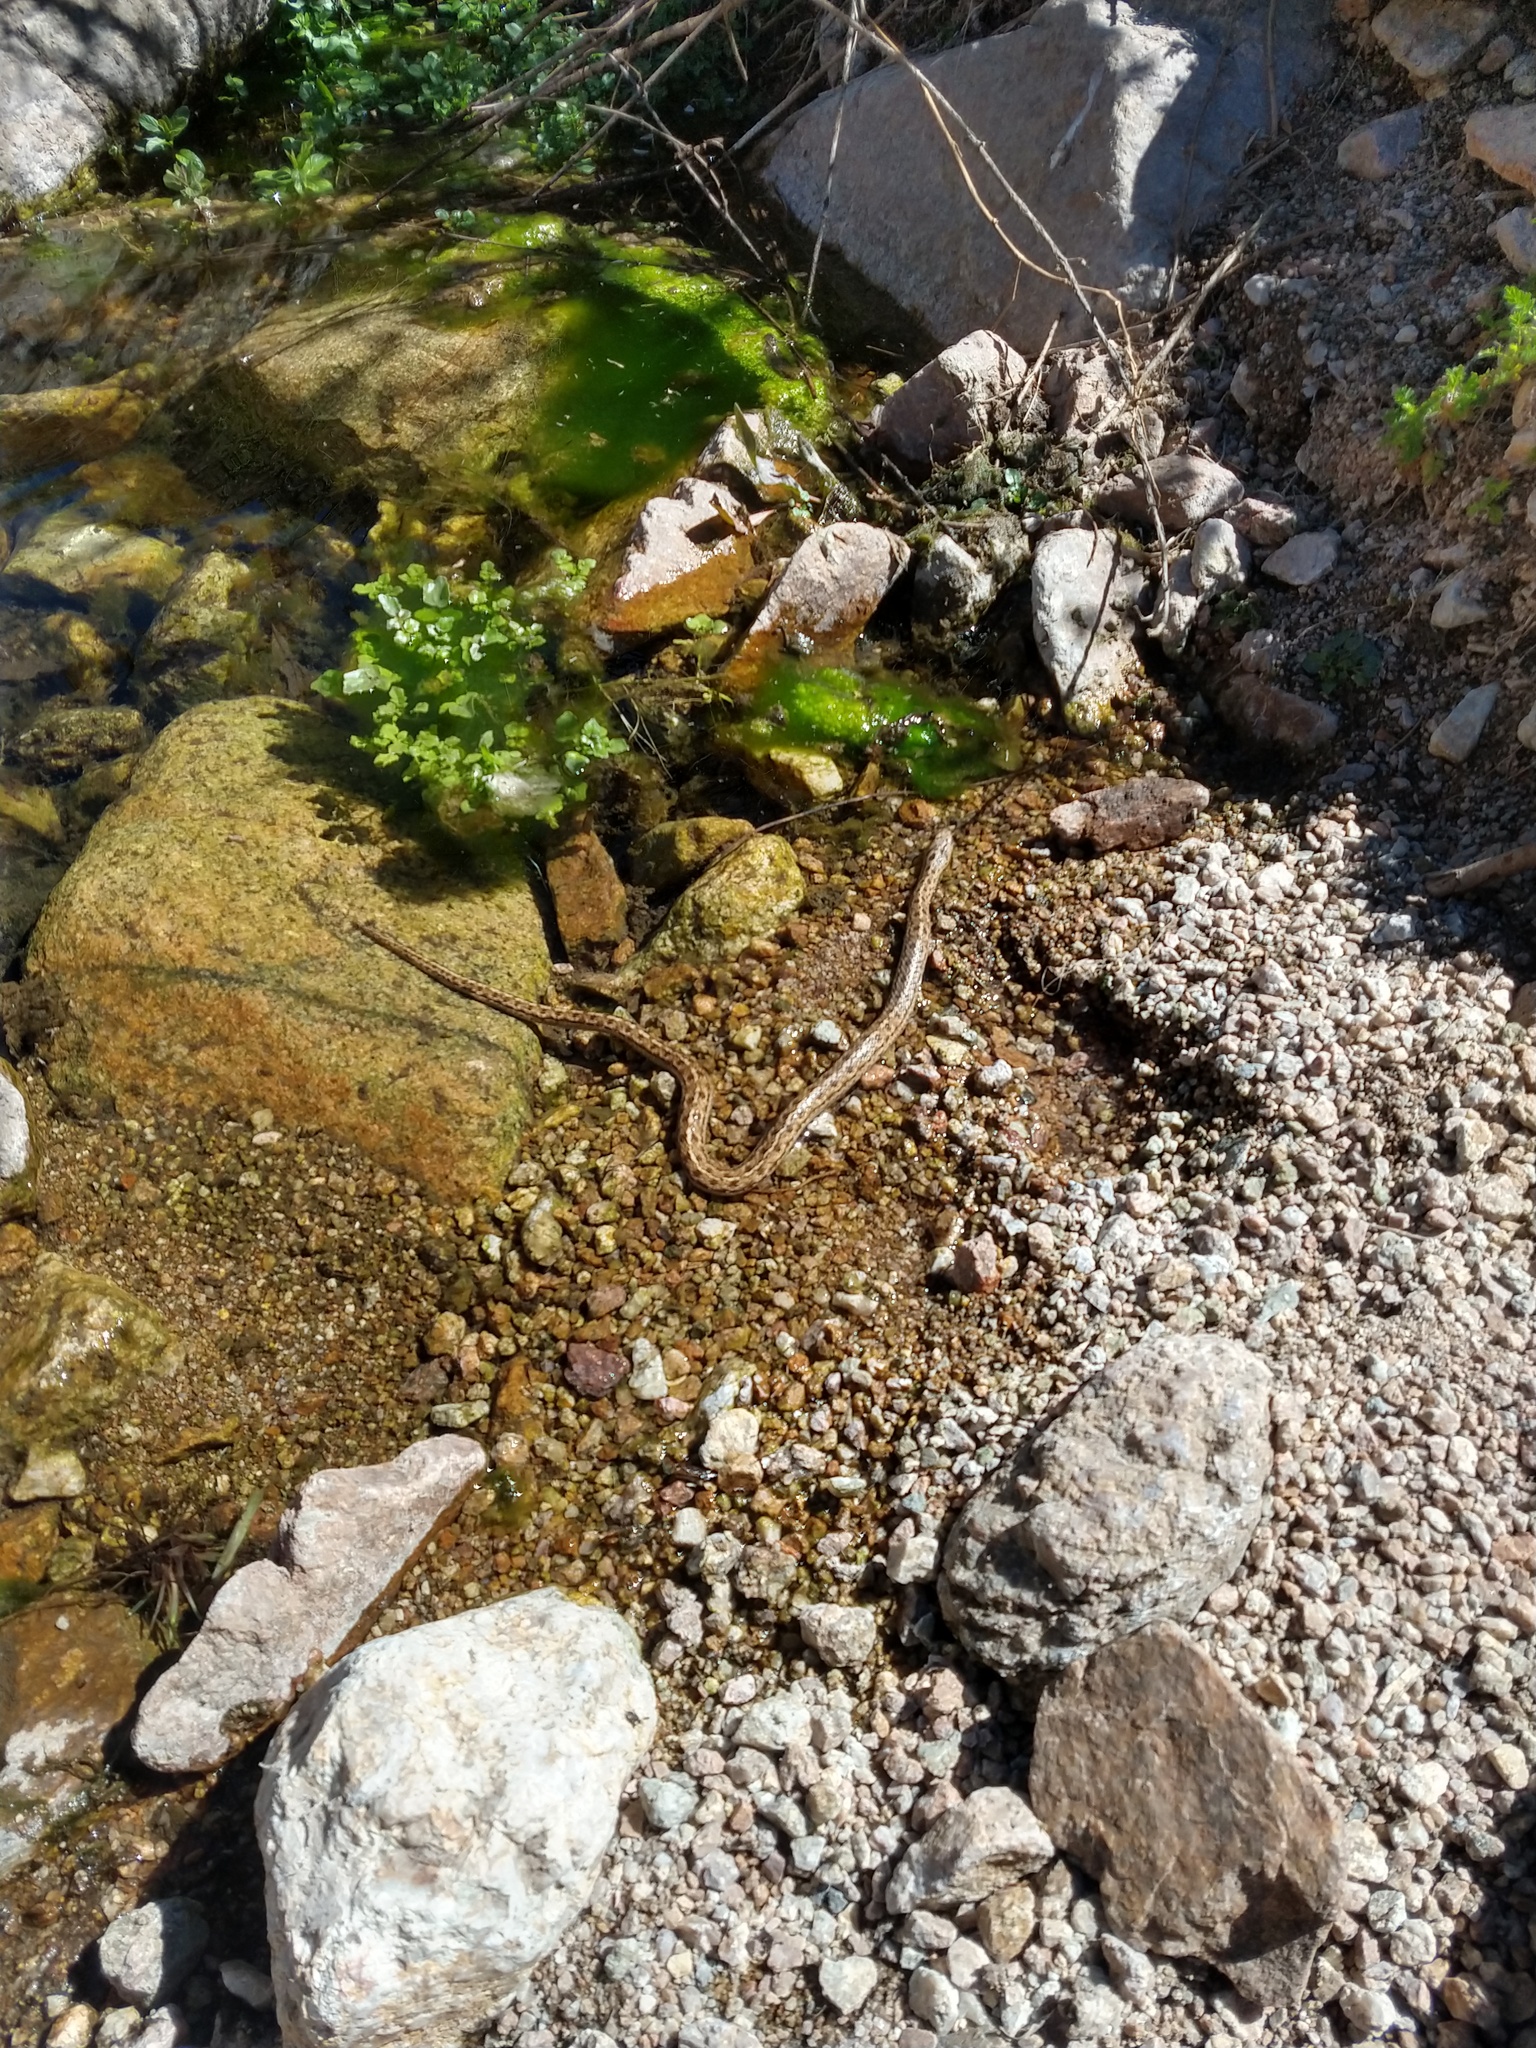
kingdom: Animalia
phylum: Chordata
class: Squamata
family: Colubridae
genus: Tachymenis
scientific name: Tachymenis peruviana
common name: Peru slender snake
